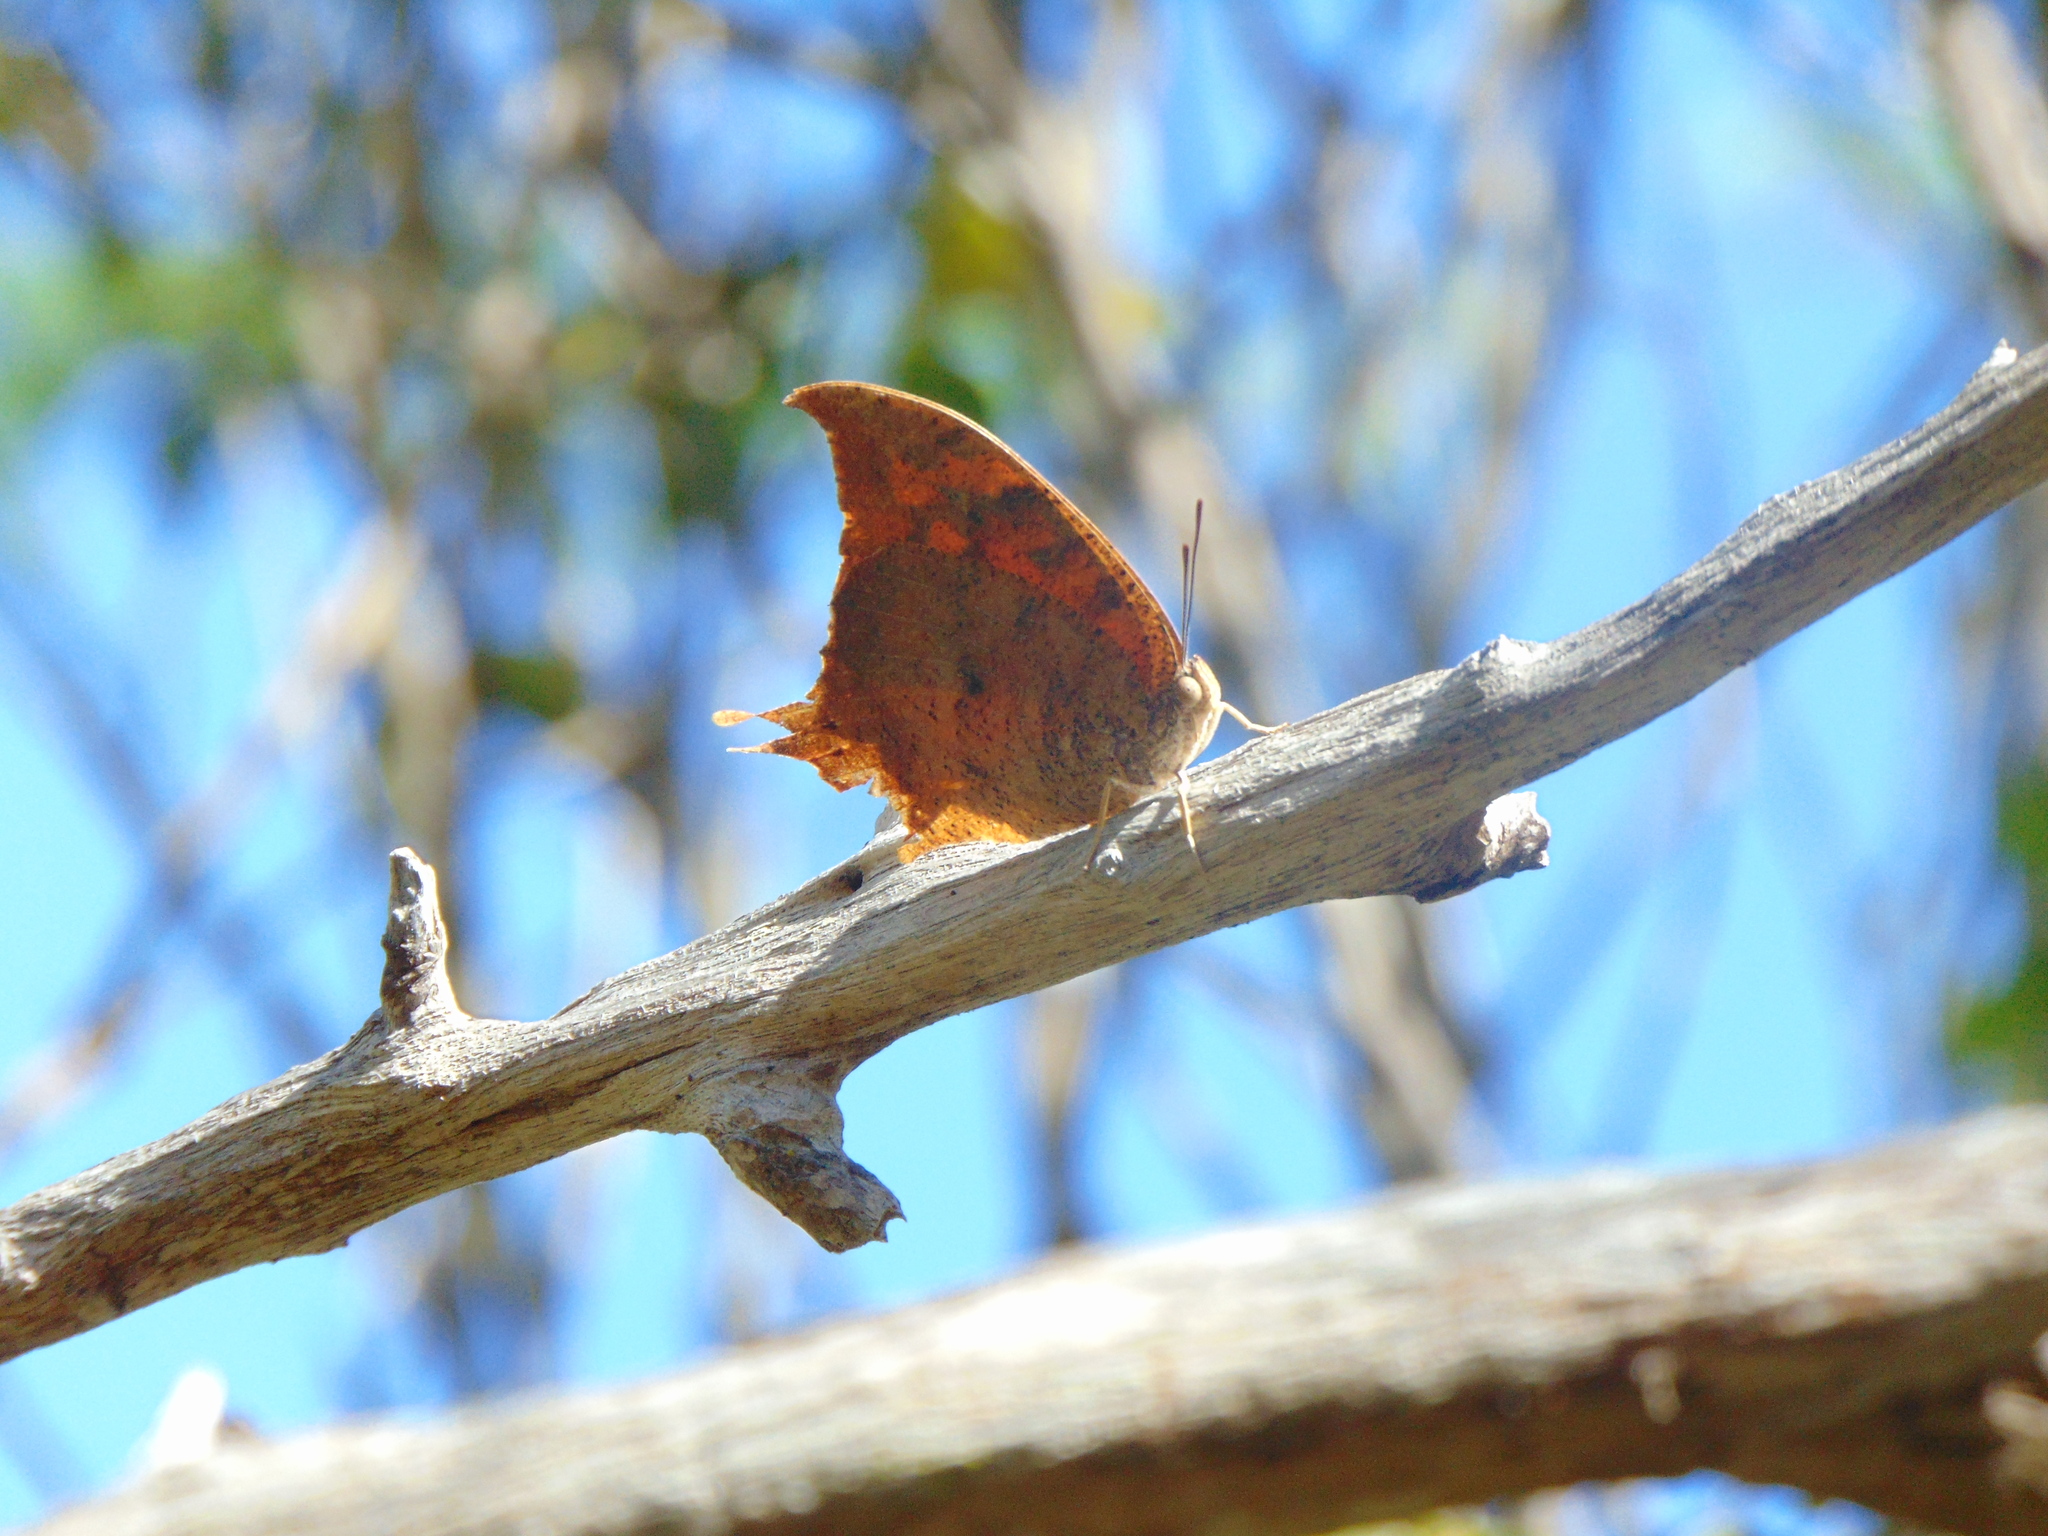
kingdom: Animalia
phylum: Arthropoda
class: Insecta
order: Lepidoptera
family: Nymphalidae
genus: Anaea
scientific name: Anaea troglodyta
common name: Florida leafwing
